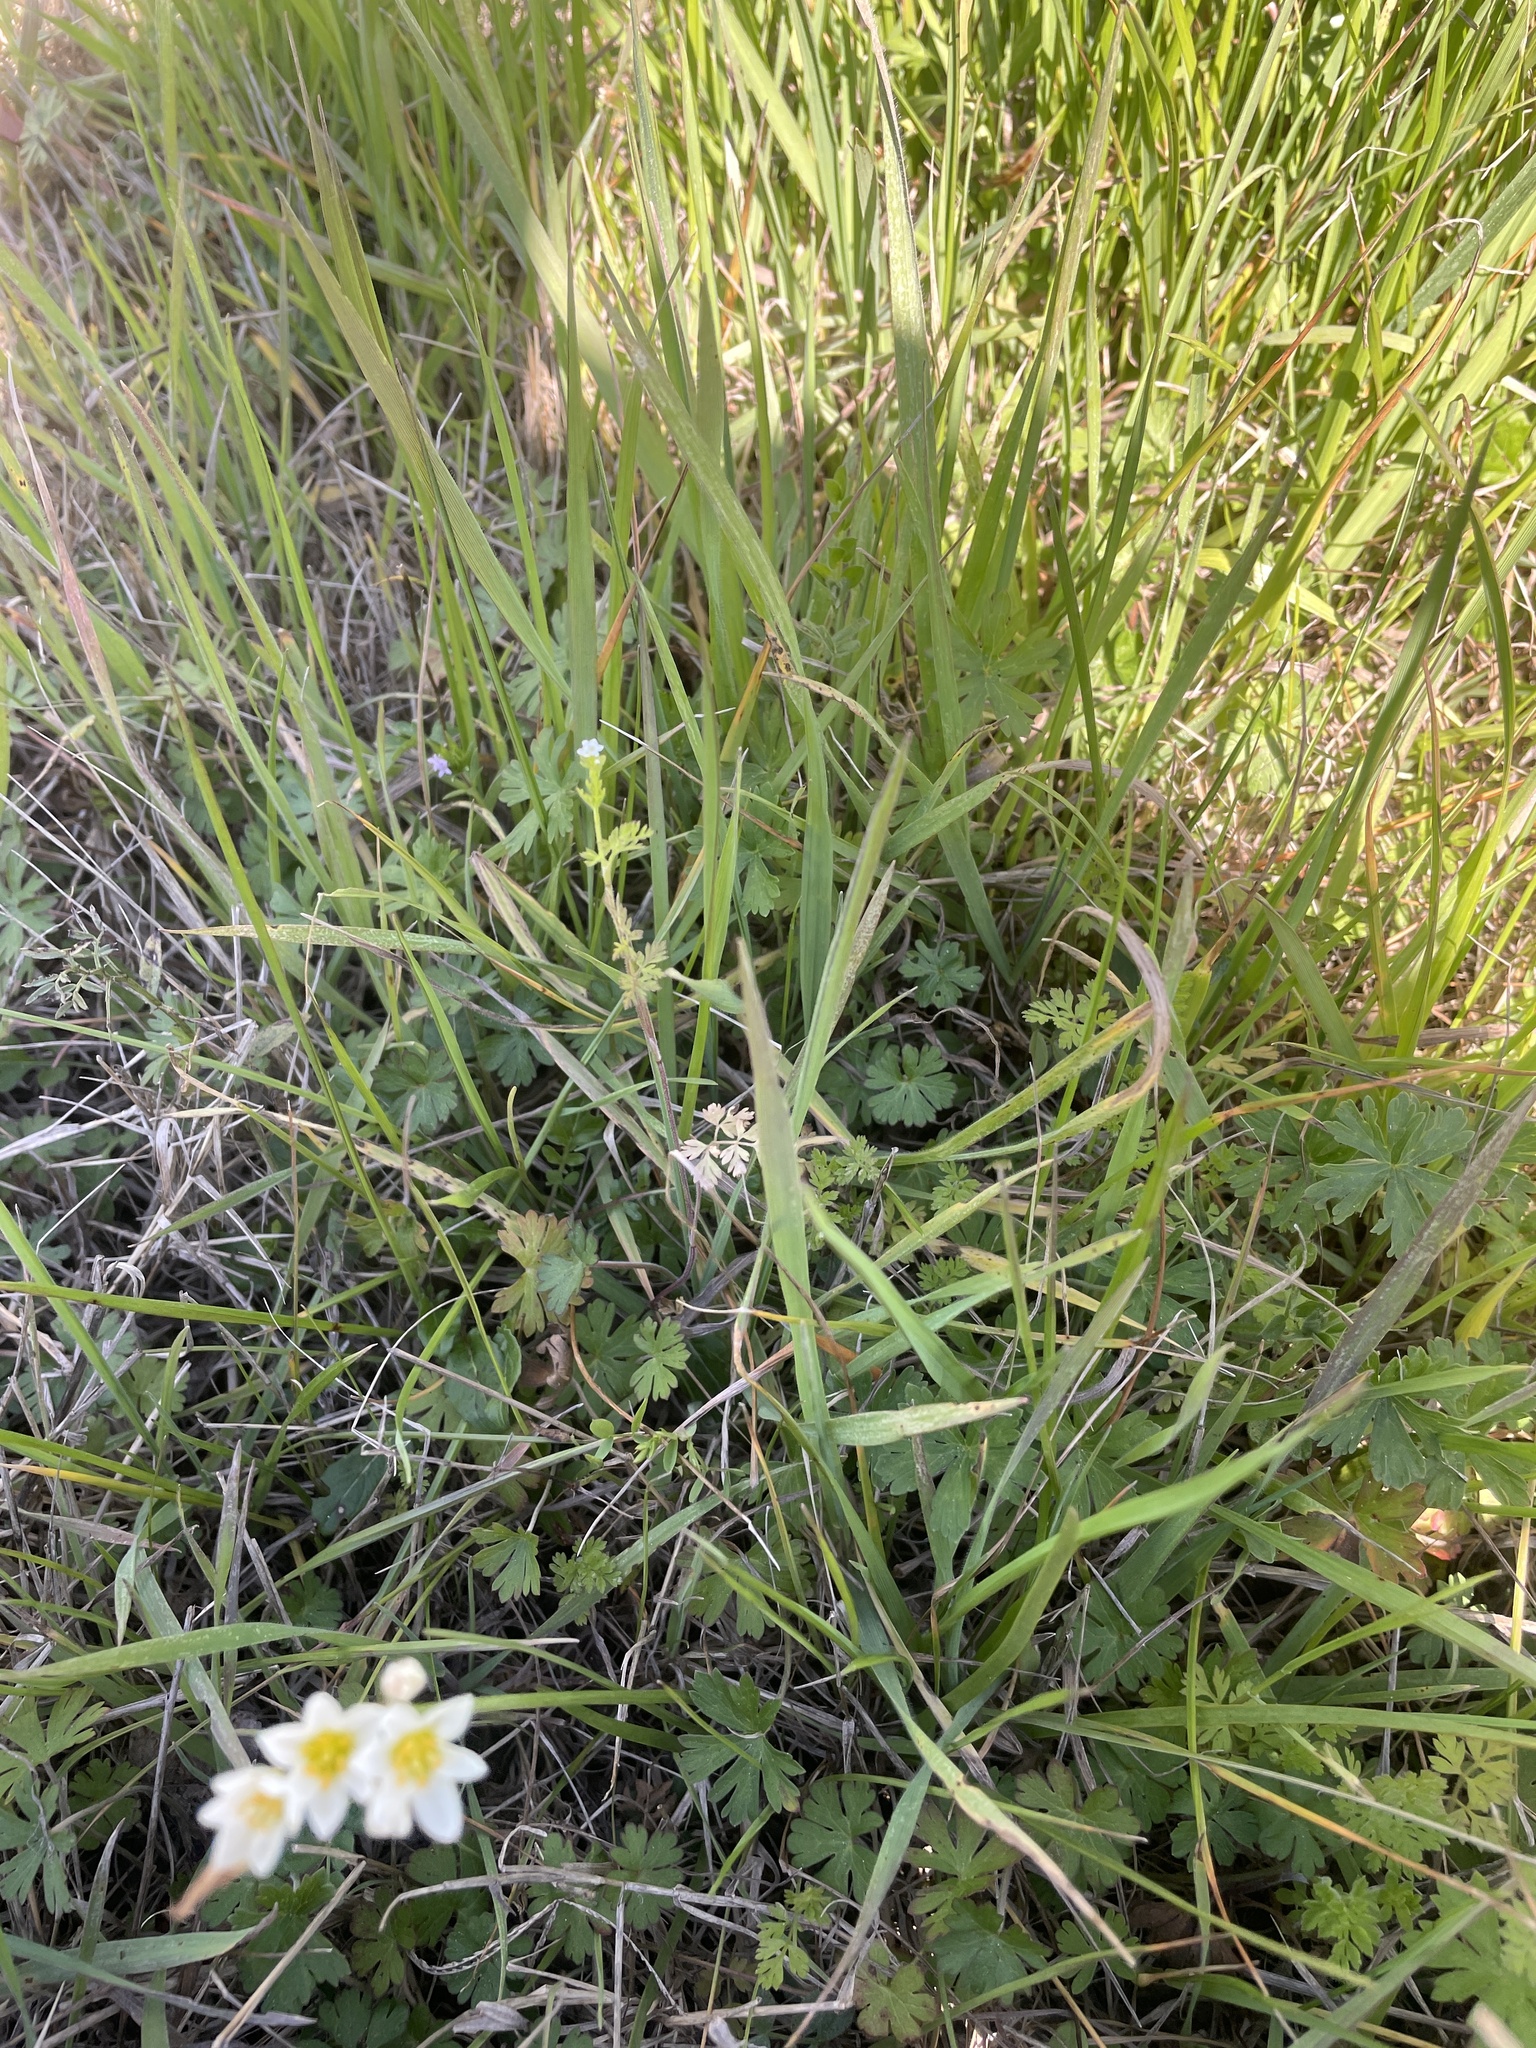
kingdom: Plantae
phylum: Tracheophyta
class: Magnoliopsida
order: Apiales
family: Apiaceae
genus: Chaerophyllum
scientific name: Chaerophyllum tainturieri
